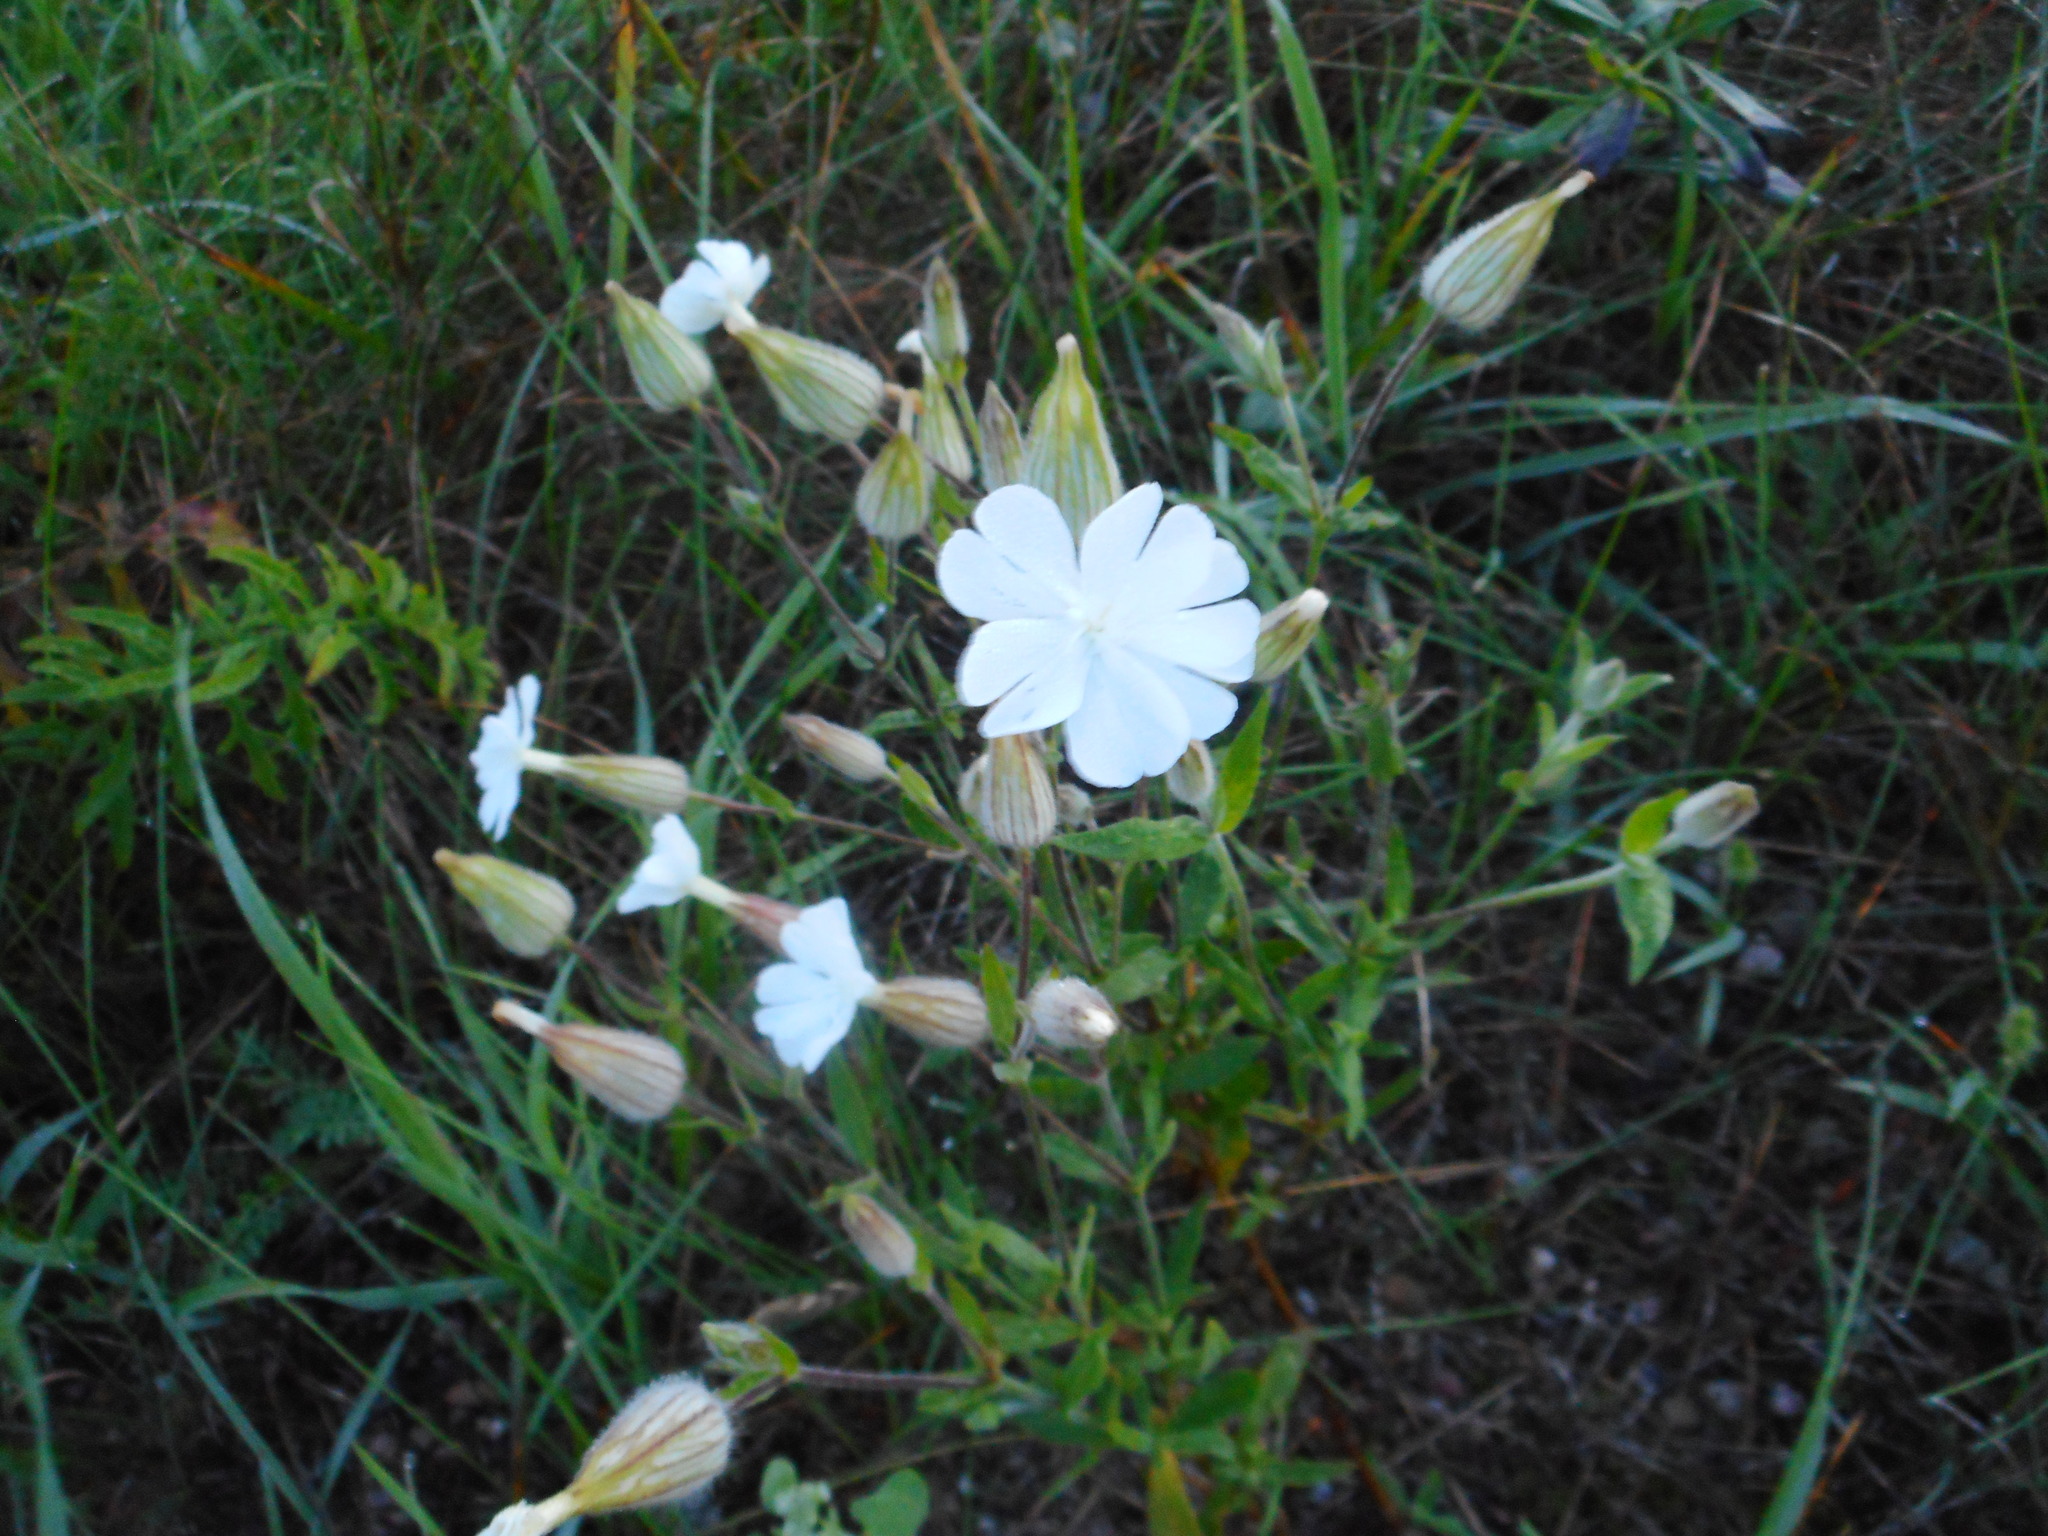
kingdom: Plantae
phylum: Tracheophyta
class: Magnoliopsida
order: Caryophyllales
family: Caryophyllaceae
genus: Silene
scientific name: Silene latifolia
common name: White campion
